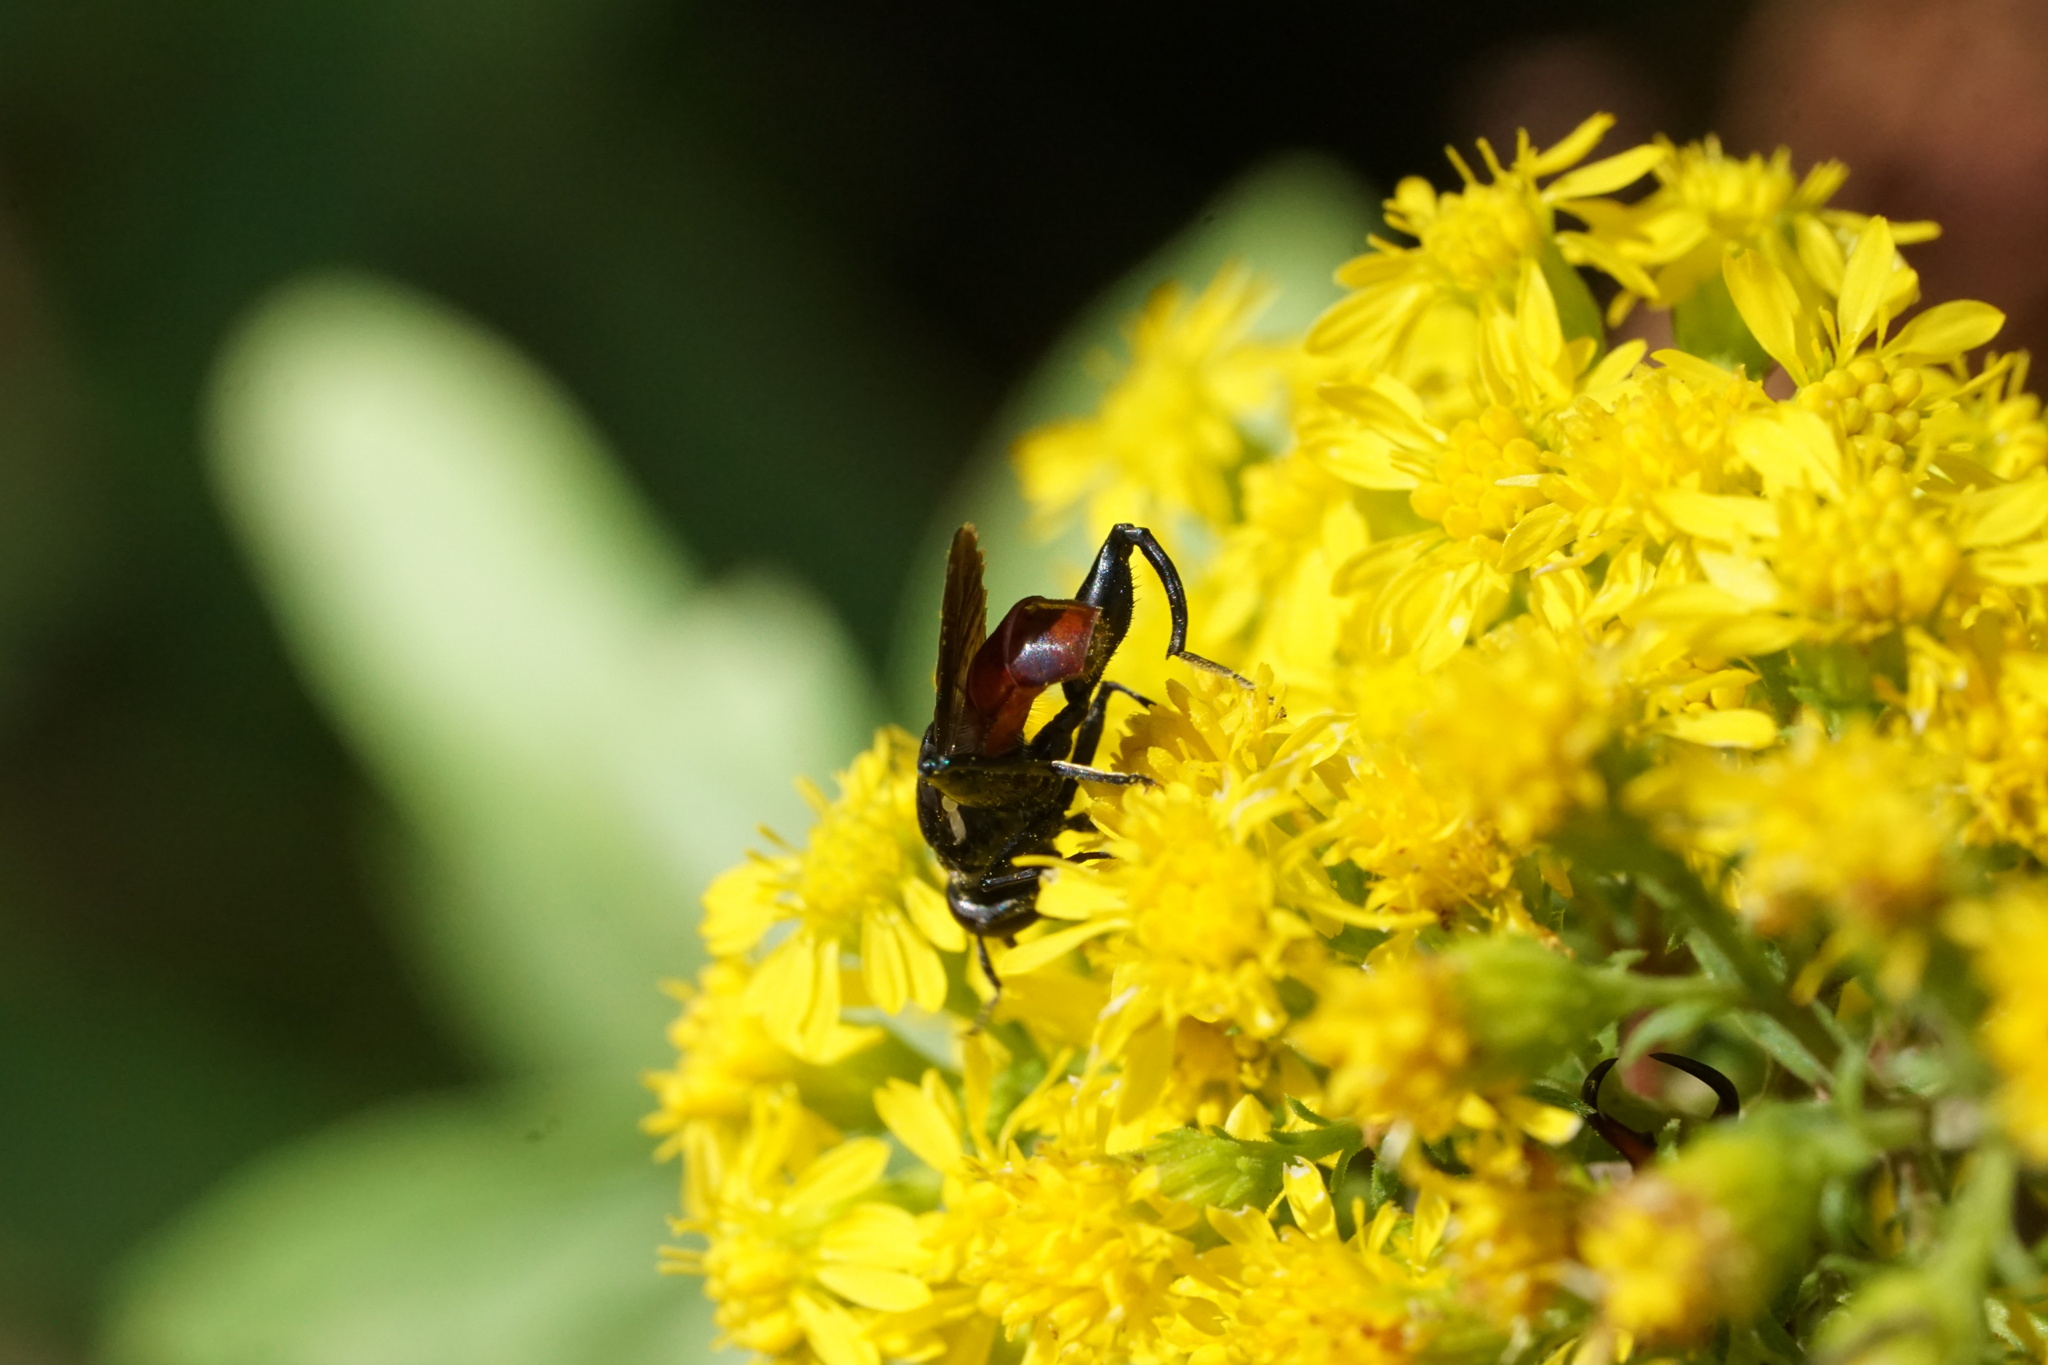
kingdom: Animalia
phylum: Arthropoda
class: Insecta
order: Diptera
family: Syrphidae
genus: Chalcosyrphus
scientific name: Chalcosyrphus piger
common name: Short-haired leafwalker
